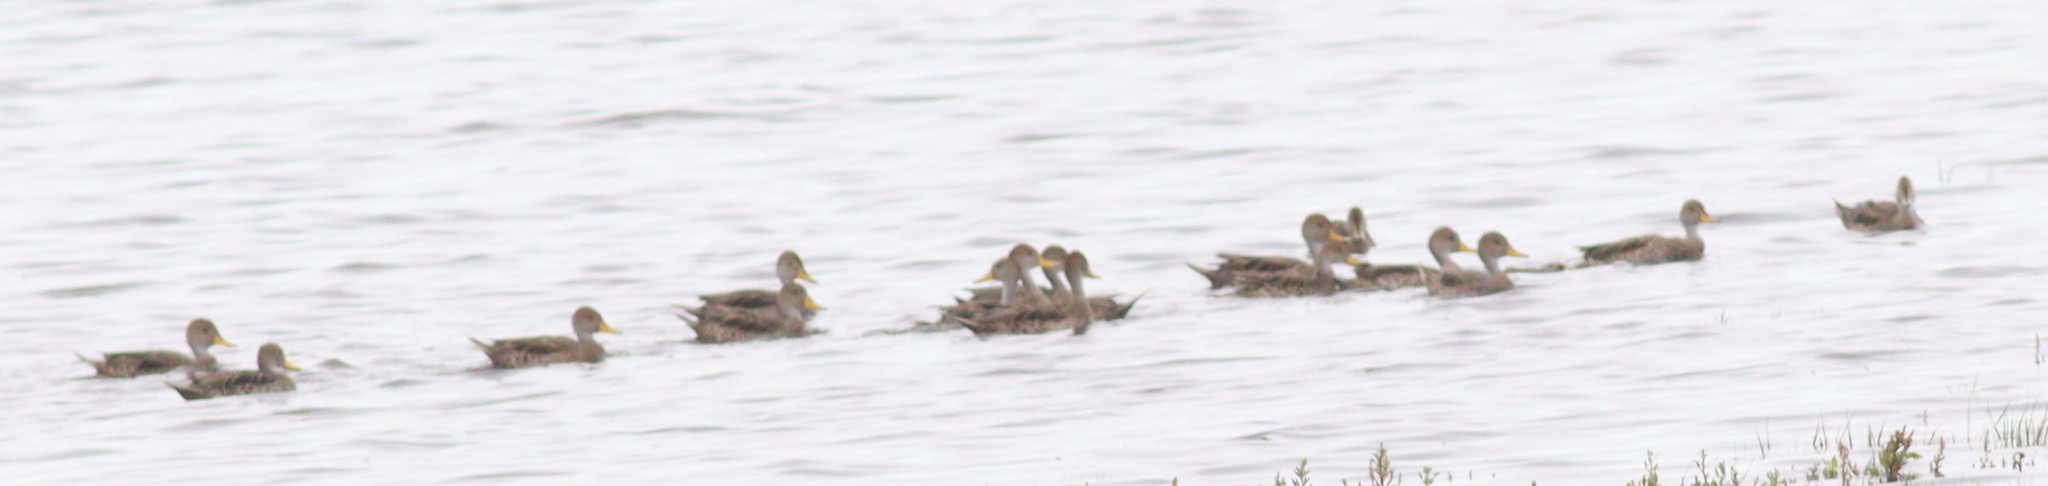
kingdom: Animalia
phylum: Chordata
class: Aves
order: Anseriformes
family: Anatidae
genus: Anas
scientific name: Anas georgica
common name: Yellow-billed pintail
